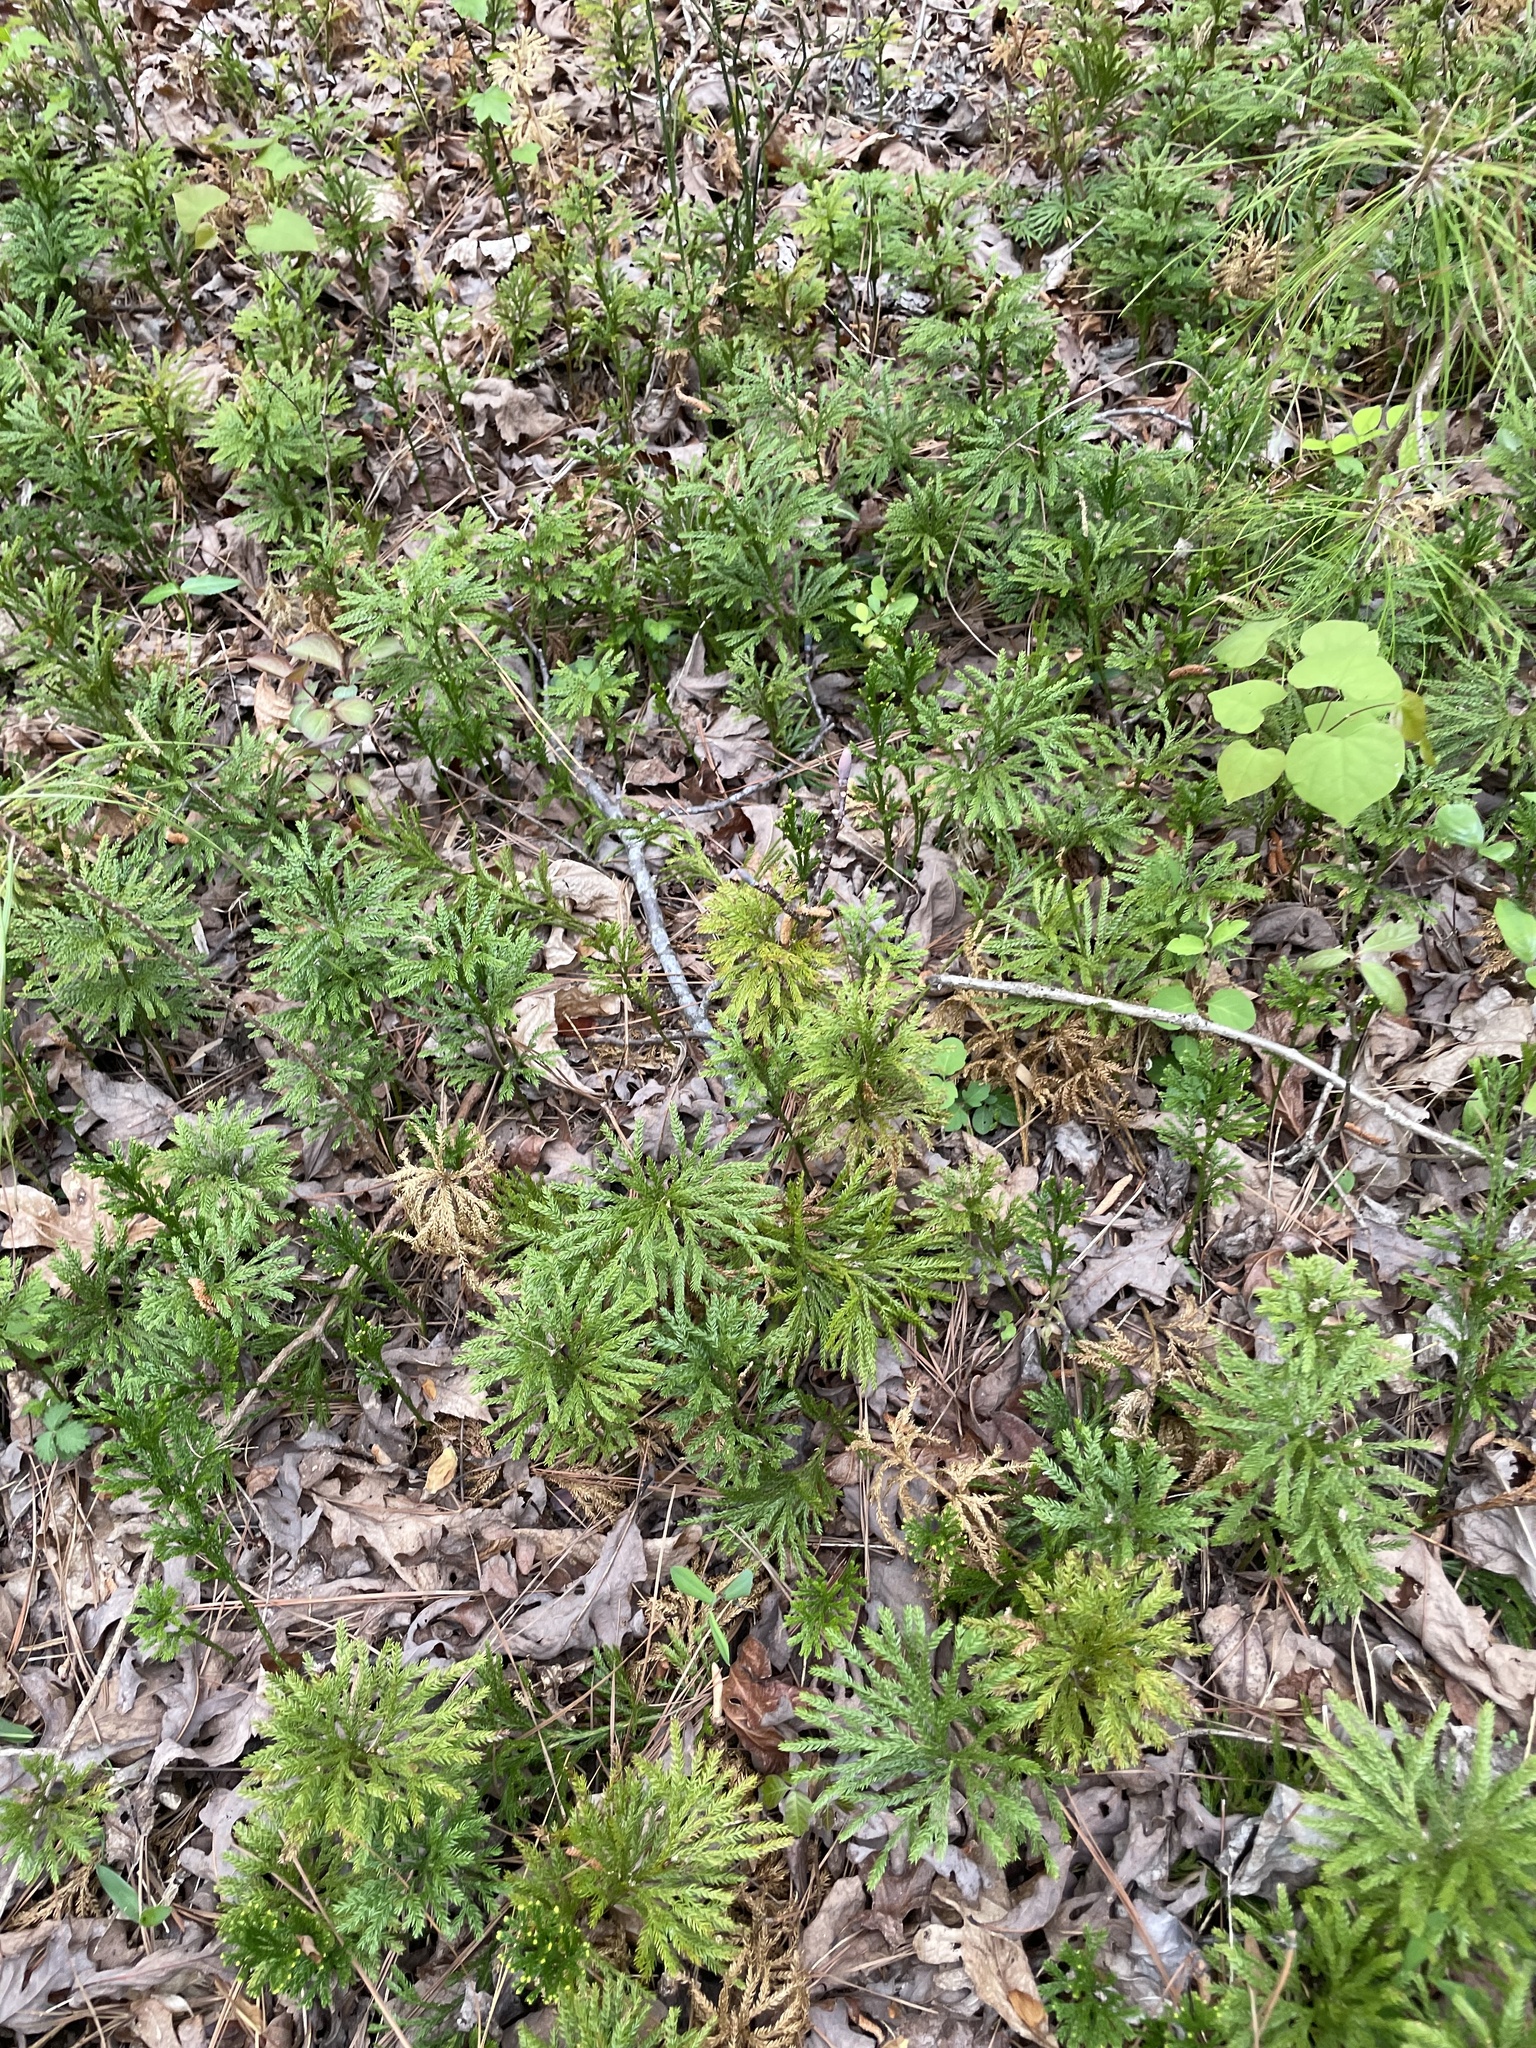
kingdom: Plantae
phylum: Tracheophyta
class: Lycopodiopsida
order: Lycopodiales
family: Lycopodiaceae
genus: Dendrolycopodium
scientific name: Dendrolycopodium obscurum
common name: Common ground-pine
